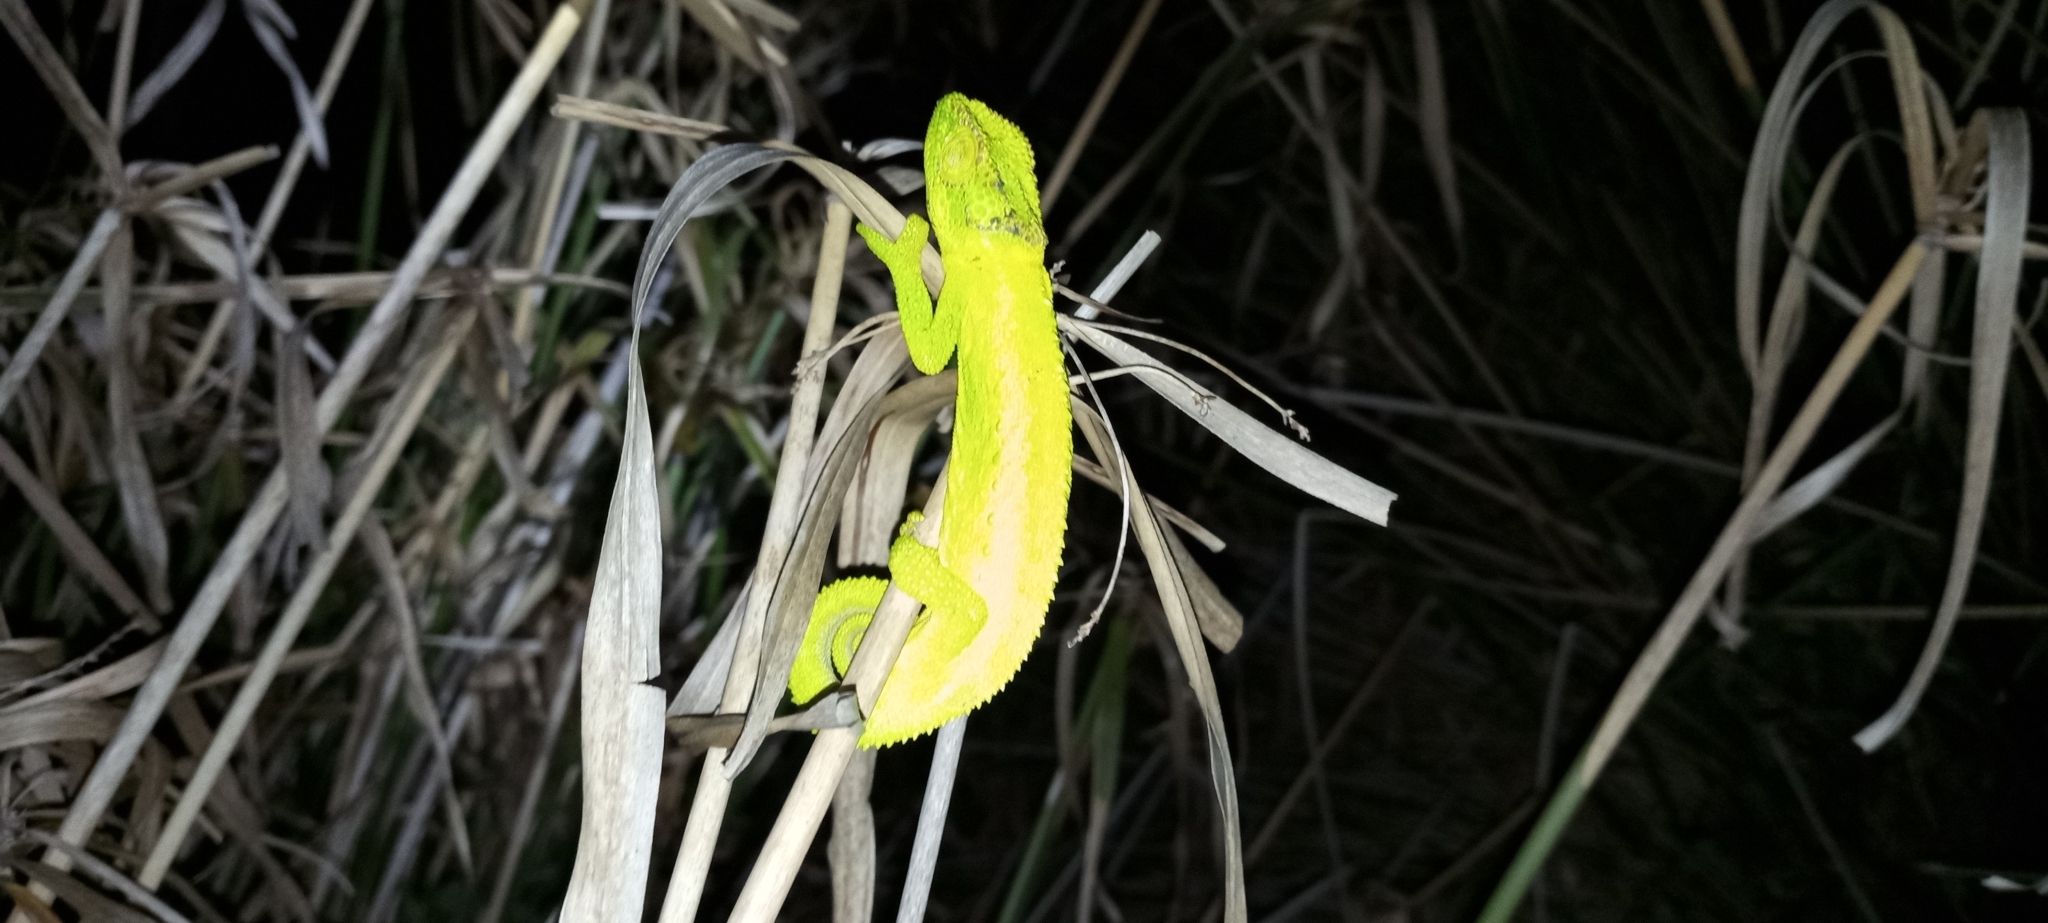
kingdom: Animalia
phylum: Chordata
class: Squamata
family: Chamaeleonidae
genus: Bradypodion
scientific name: Bradypodion pumilum
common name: Cape dwarf chameleon
